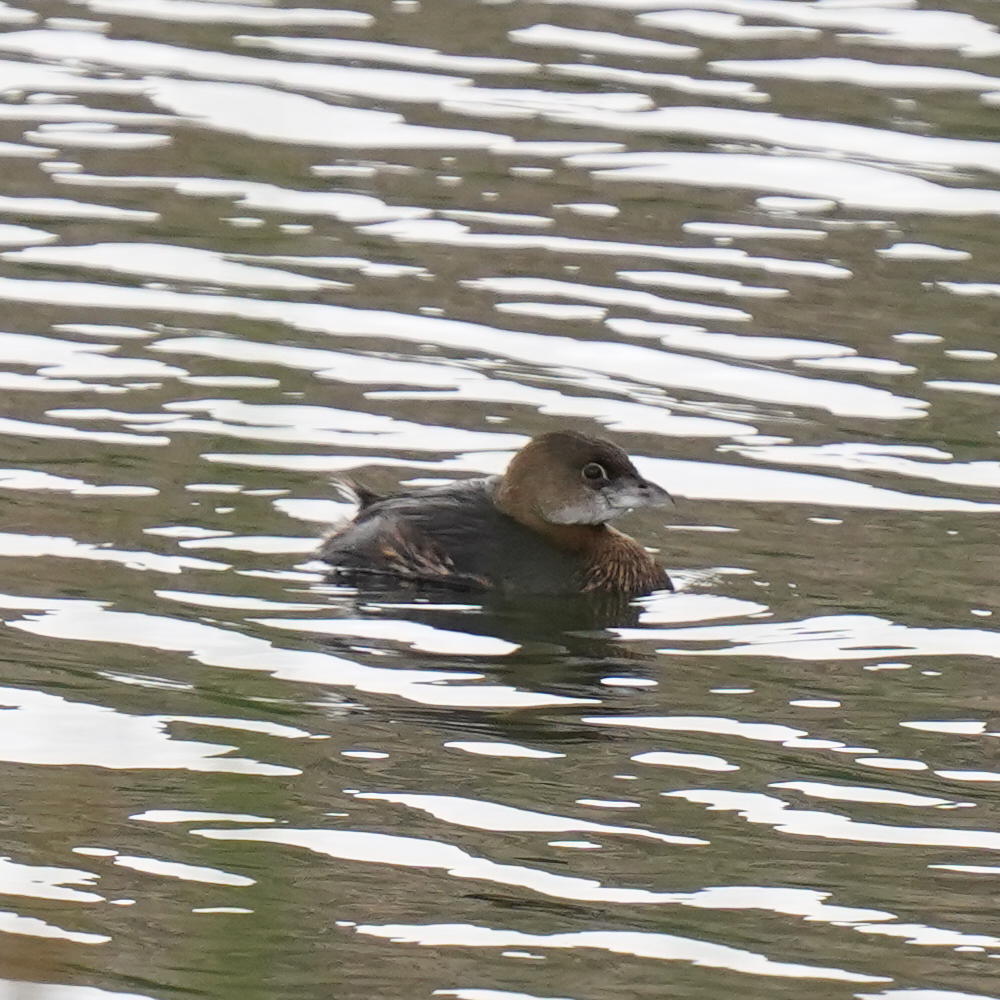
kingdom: Animalia
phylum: Chordata
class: Aves
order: Podicipediformes
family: Podicipedidae
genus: Podilymbus
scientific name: Podilymbus podiceps
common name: Pied-billed grebe
